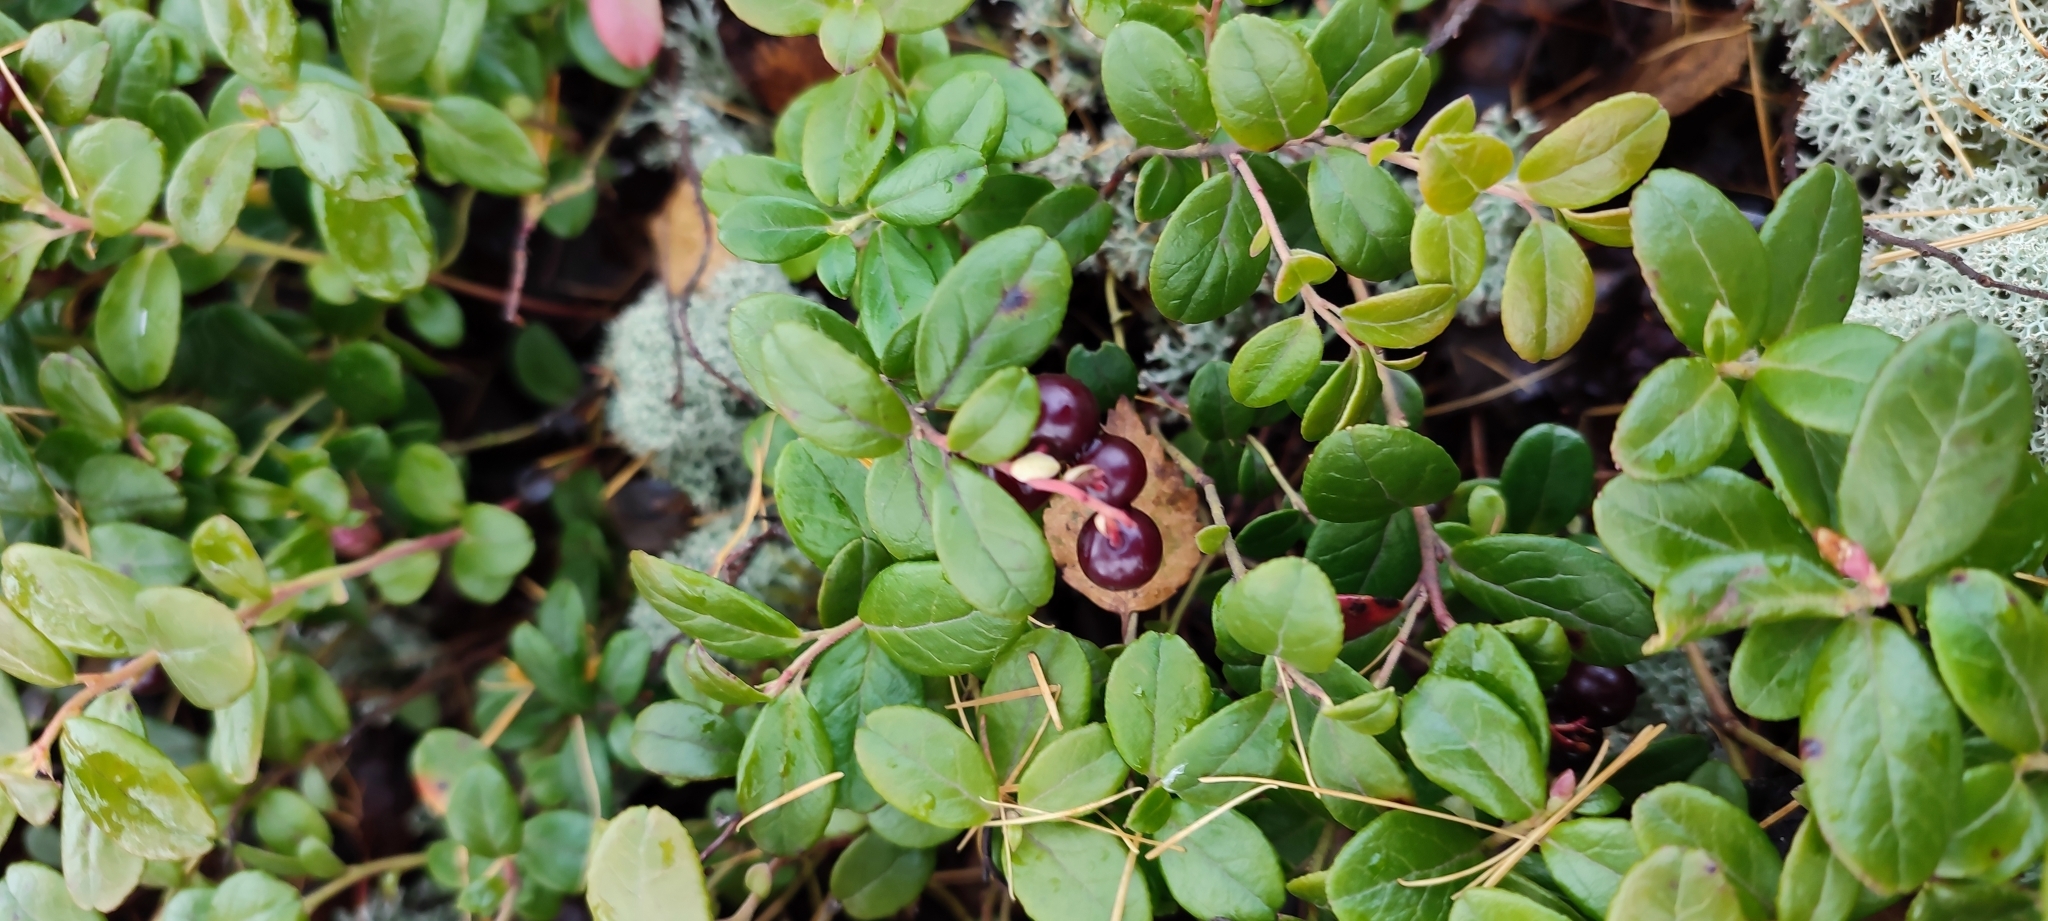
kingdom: Plantae
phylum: Tracheophyta
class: Magnoliopsida
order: Ericales
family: Ericaceae
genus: Vaccinium
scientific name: Vaccinium vitis-idaea
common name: Cowberry
